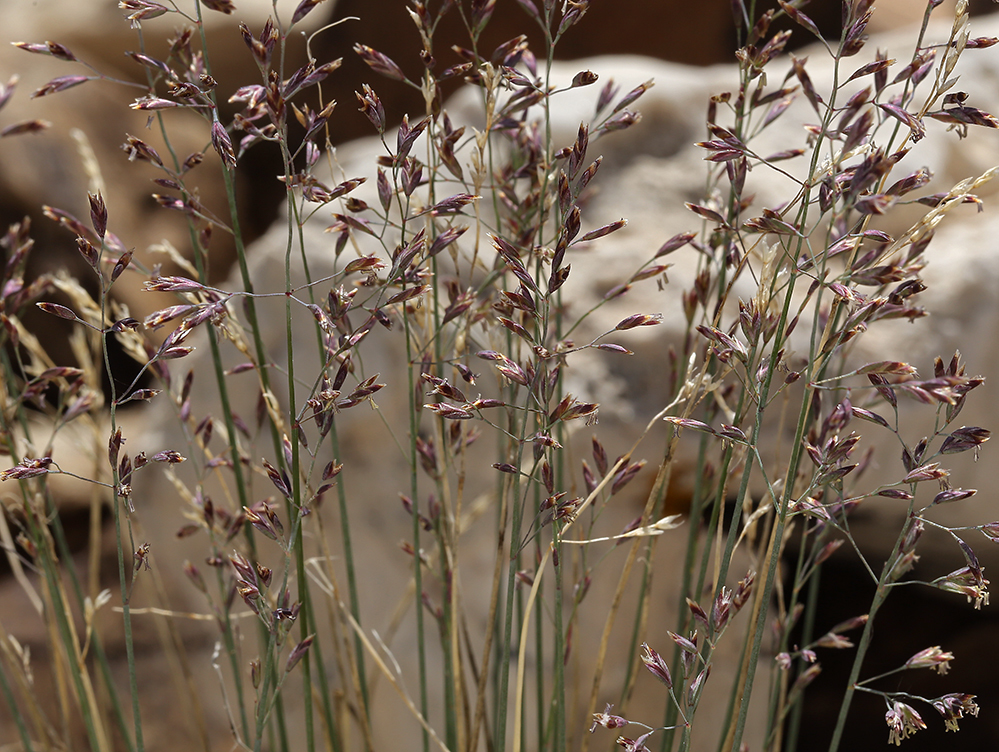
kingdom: Plantae
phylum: Tracheophyta
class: Liliopsida
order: Poales
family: Poaceae
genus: Poa
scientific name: Poa glauca
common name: Glaucous bluegrass
